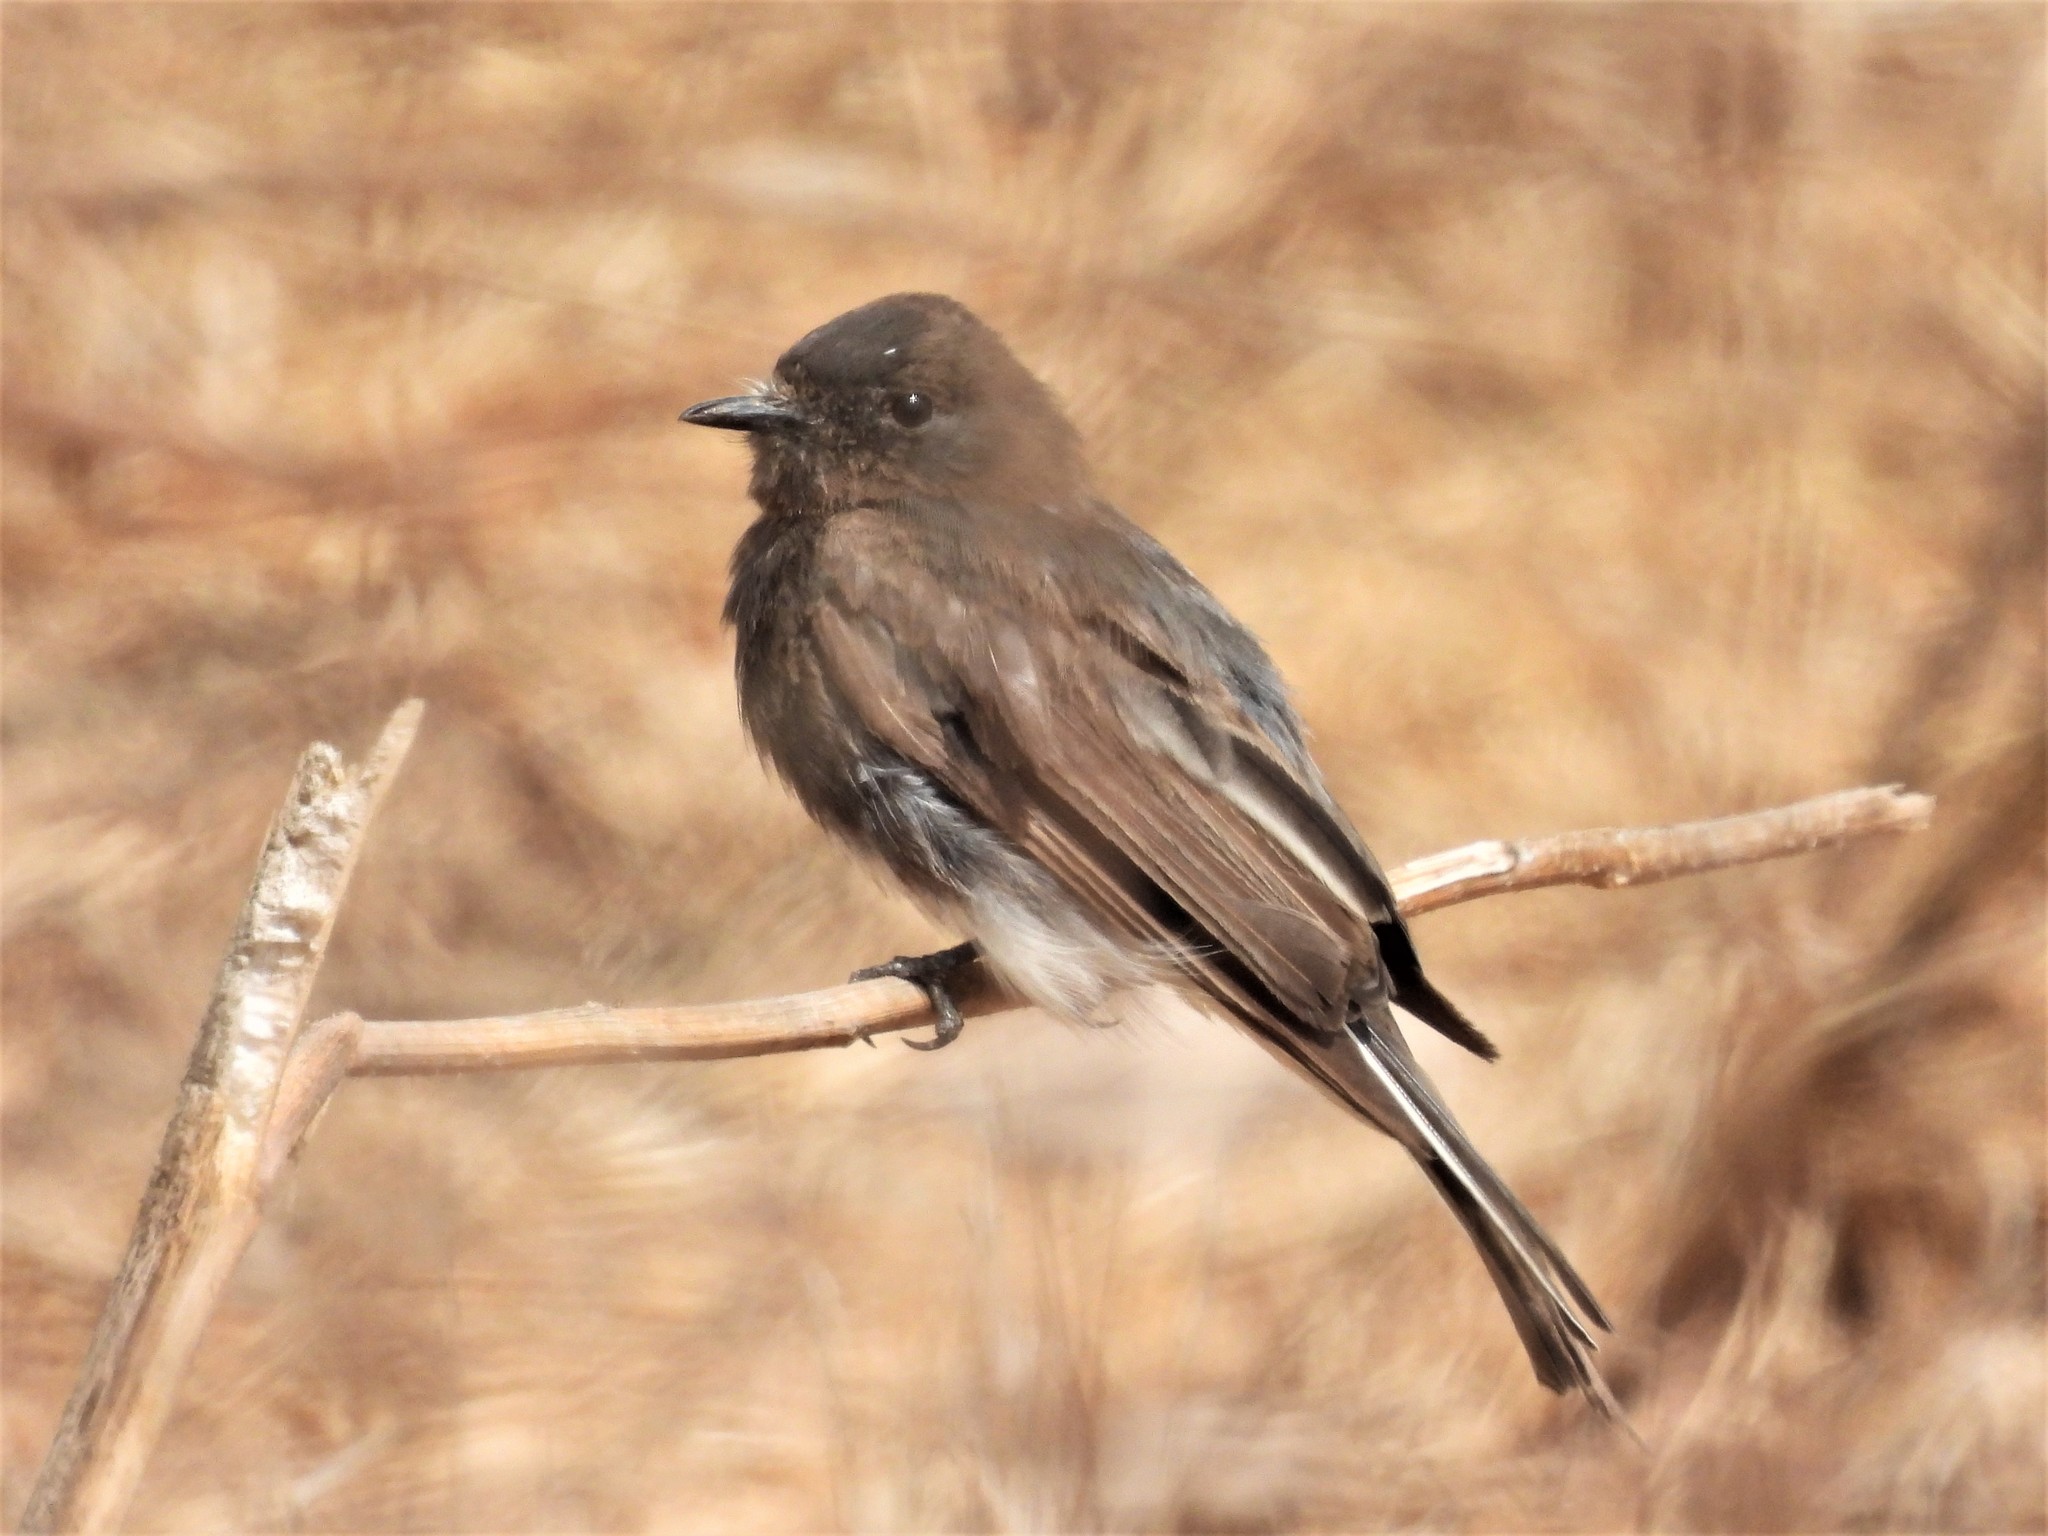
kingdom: Animalia
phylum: Chordata
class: Aves
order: Passeriformes
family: Tyrannidae
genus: Sayornis
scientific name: Sayornis nigricans
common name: Black phoebe
